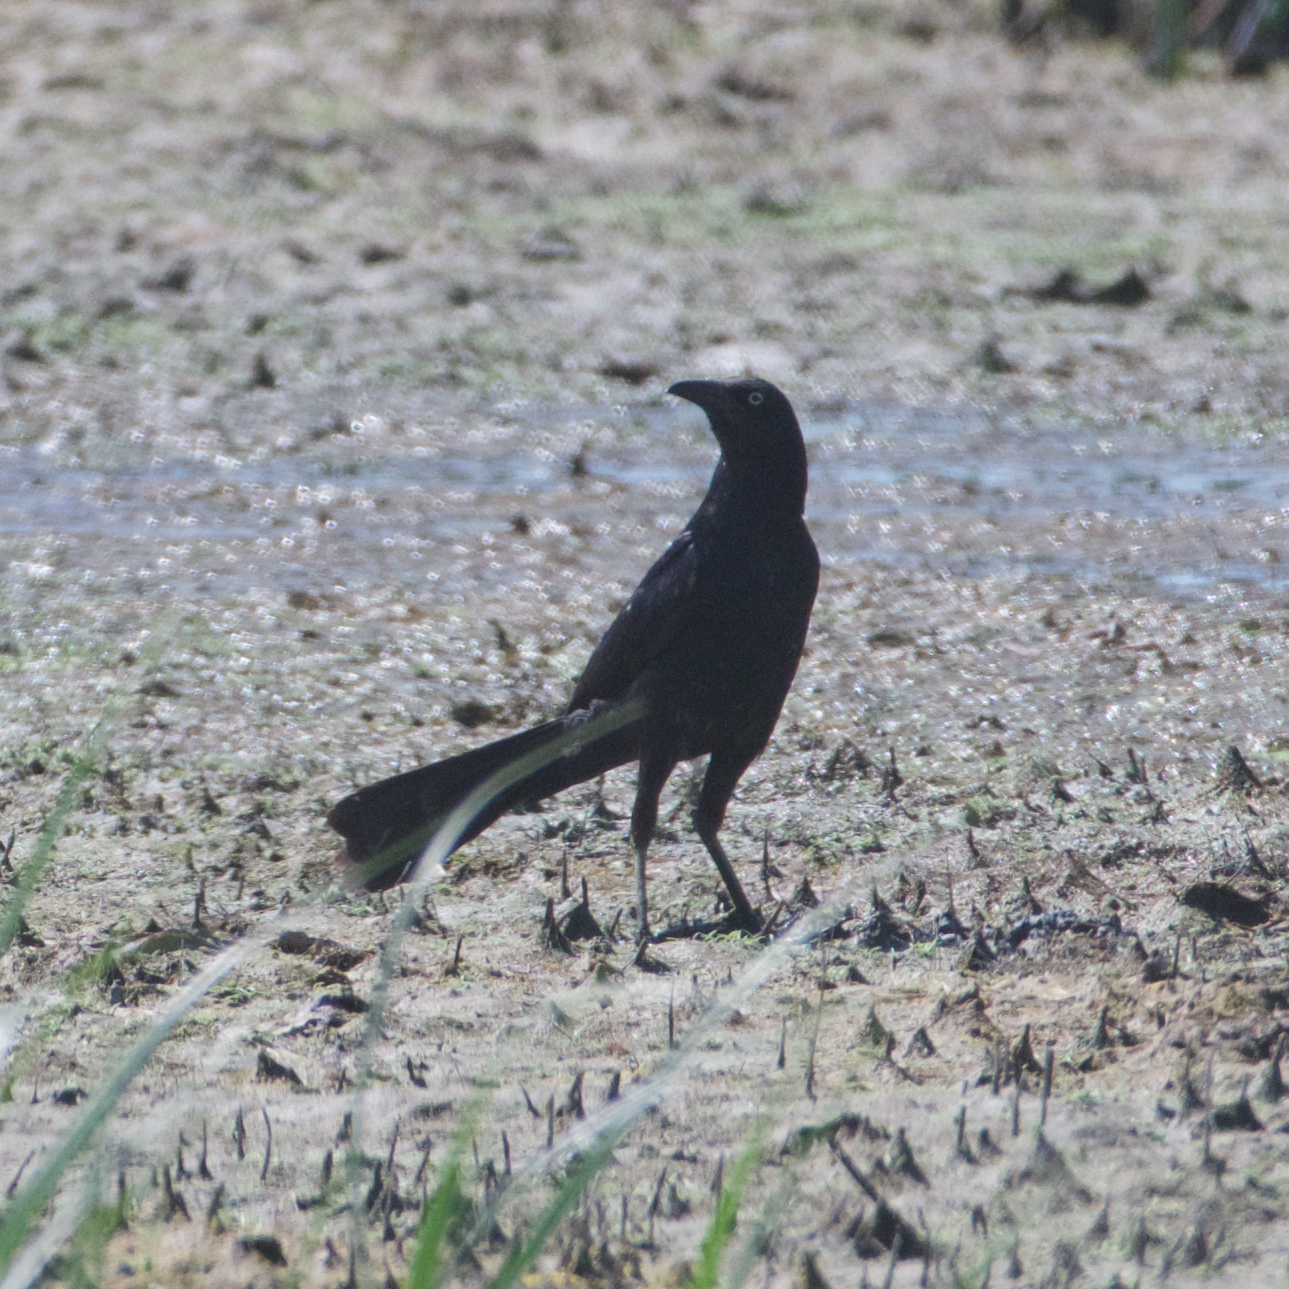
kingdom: Animalia
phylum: Chordata
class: Aves
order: Passeriformes
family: Icteridae
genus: Quiscalus
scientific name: Quiscalus mexicanus
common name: Great-tailed grackle
